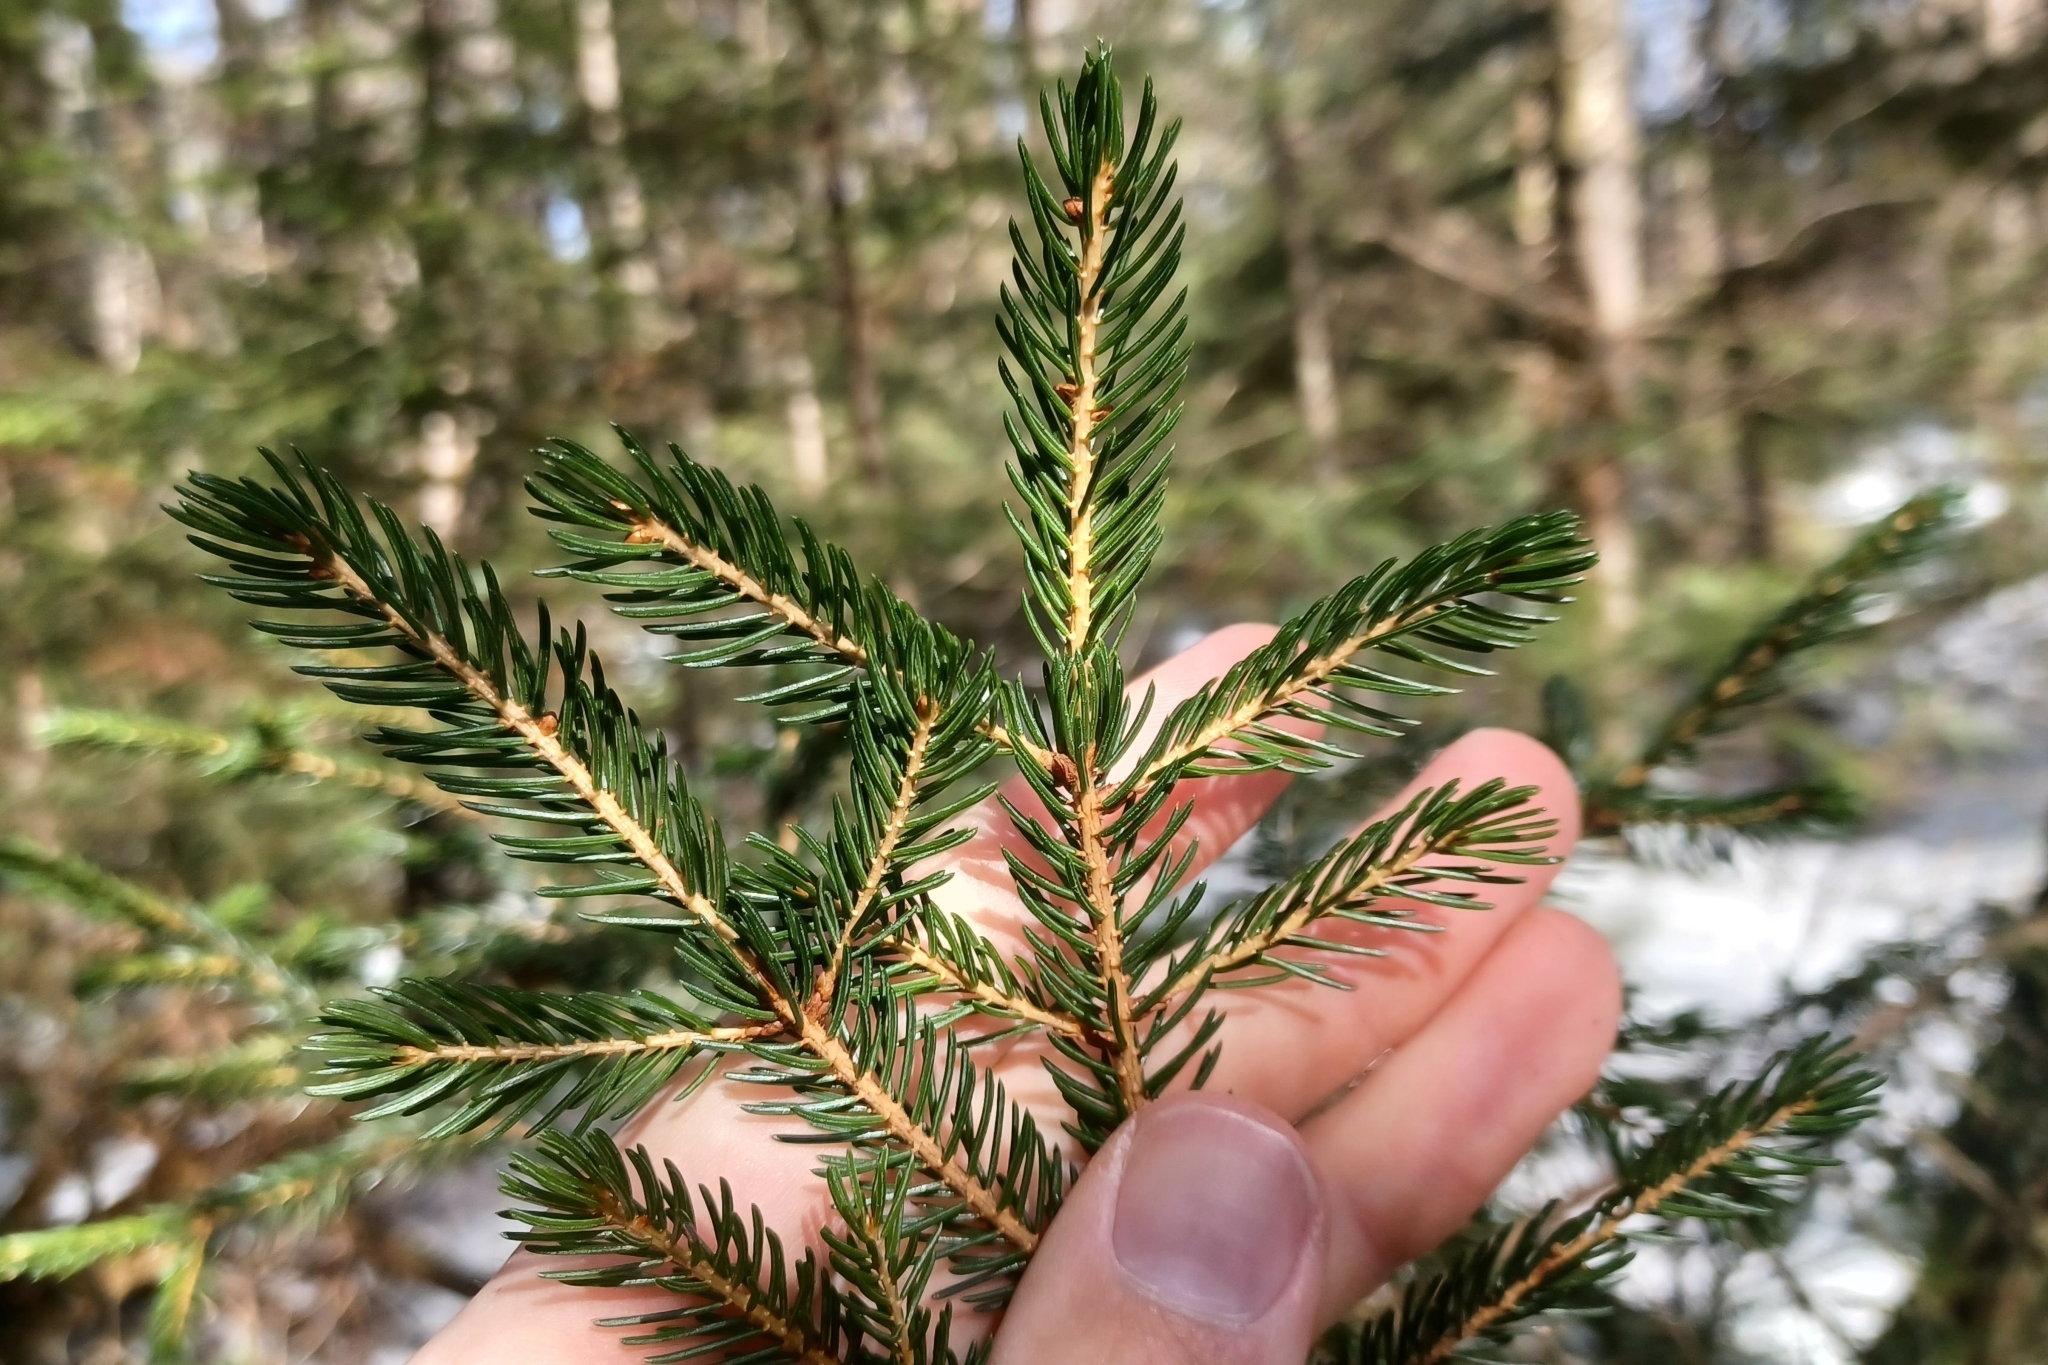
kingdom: Plantae
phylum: Tracheophyta
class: Pinopsida
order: Pinales
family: Pinaceae
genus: Picea
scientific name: Picea rubens
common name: Red spruce
